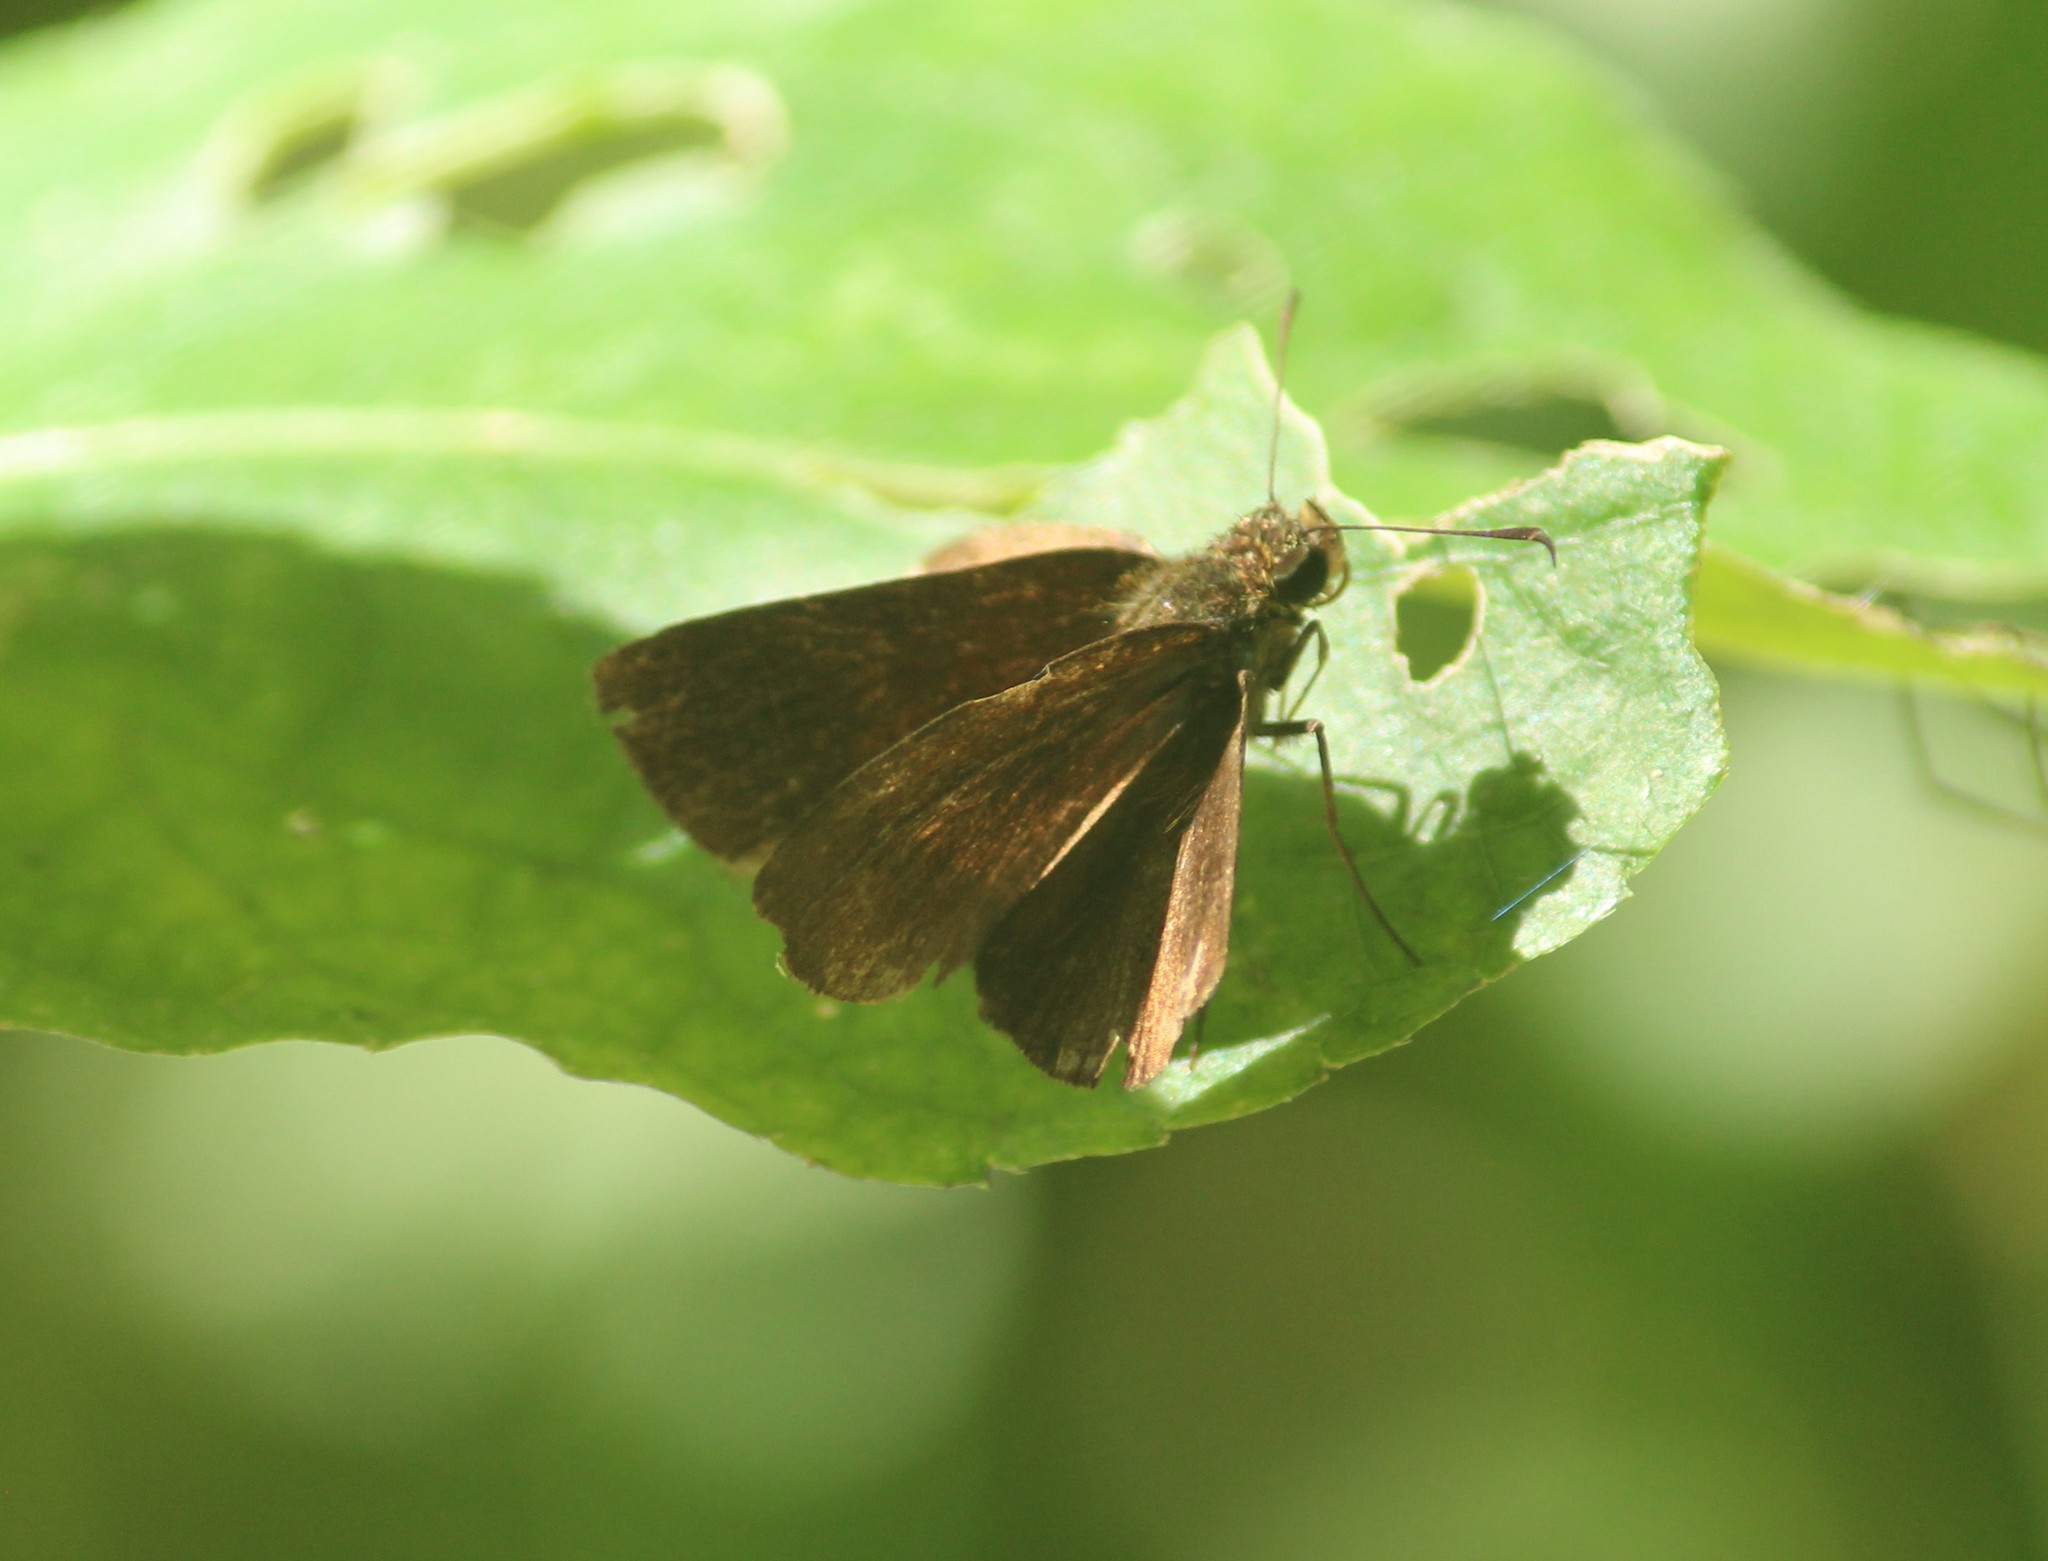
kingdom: Animalia
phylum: Arthropoda
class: Insecta
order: Lepidoptera
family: Hesperiidae
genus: Iambrix
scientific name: Iambrix salsala
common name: Chestnut bob
